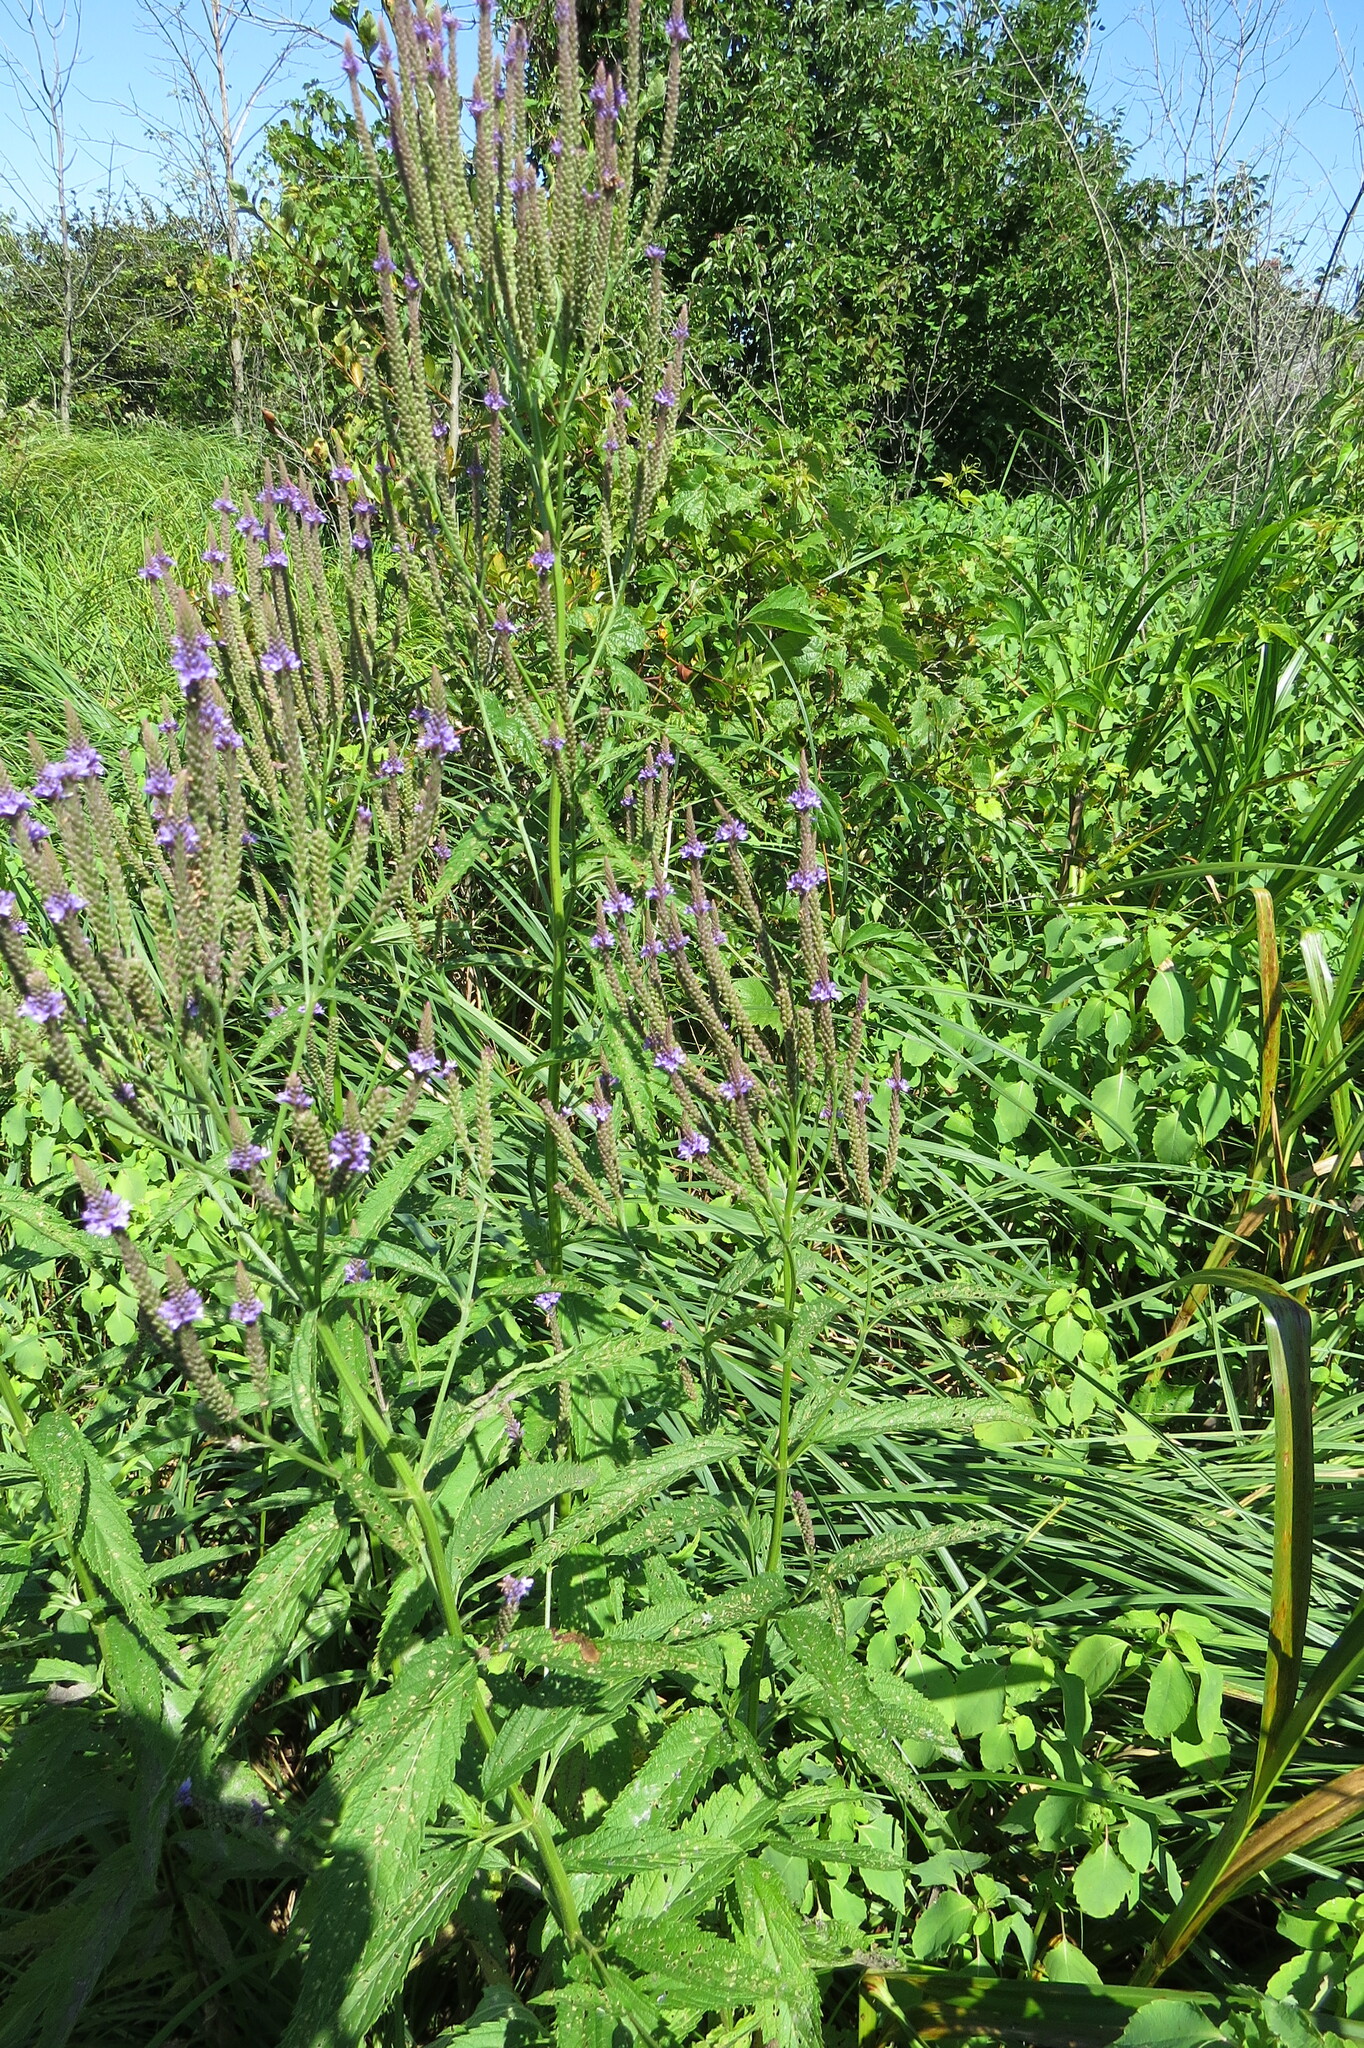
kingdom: Plantae
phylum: Tracheophyta
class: Magnoliopsida
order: Lamiales
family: Verbenaceae
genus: Verbena
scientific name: Verbena hastata
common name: American blue vervain
